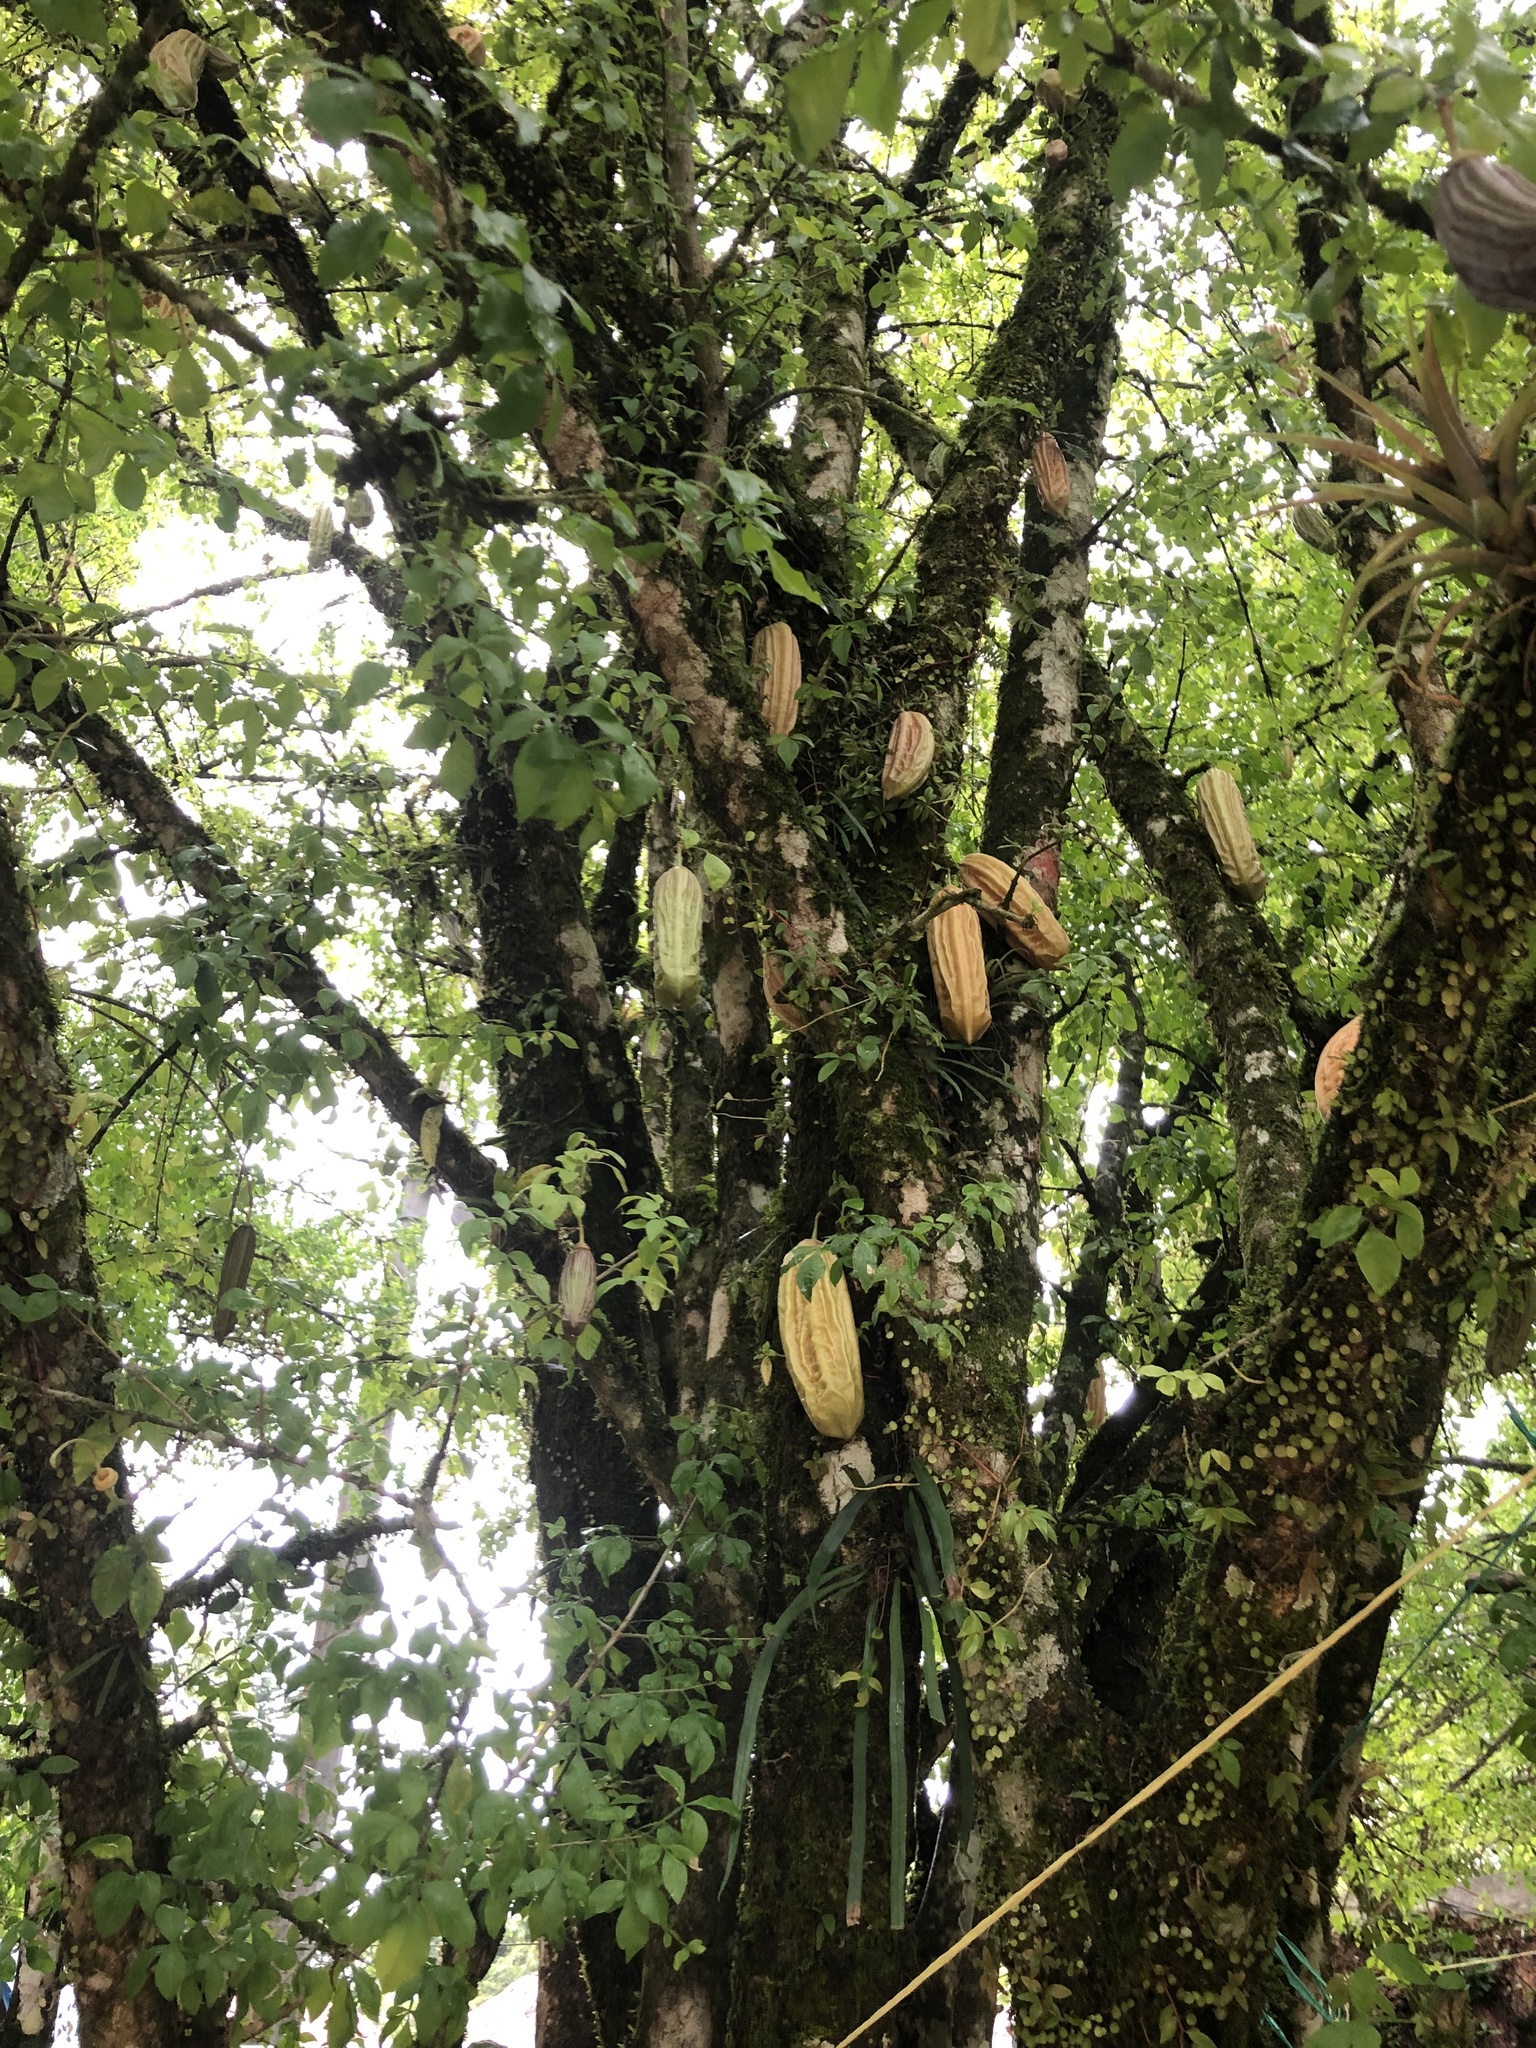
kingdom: Plantae
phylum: Tracheophyta
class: Magnoliopsida
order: Lamiales
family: Bignoniaceae
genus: Parmentiera
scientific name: Parmentiera aculeata
